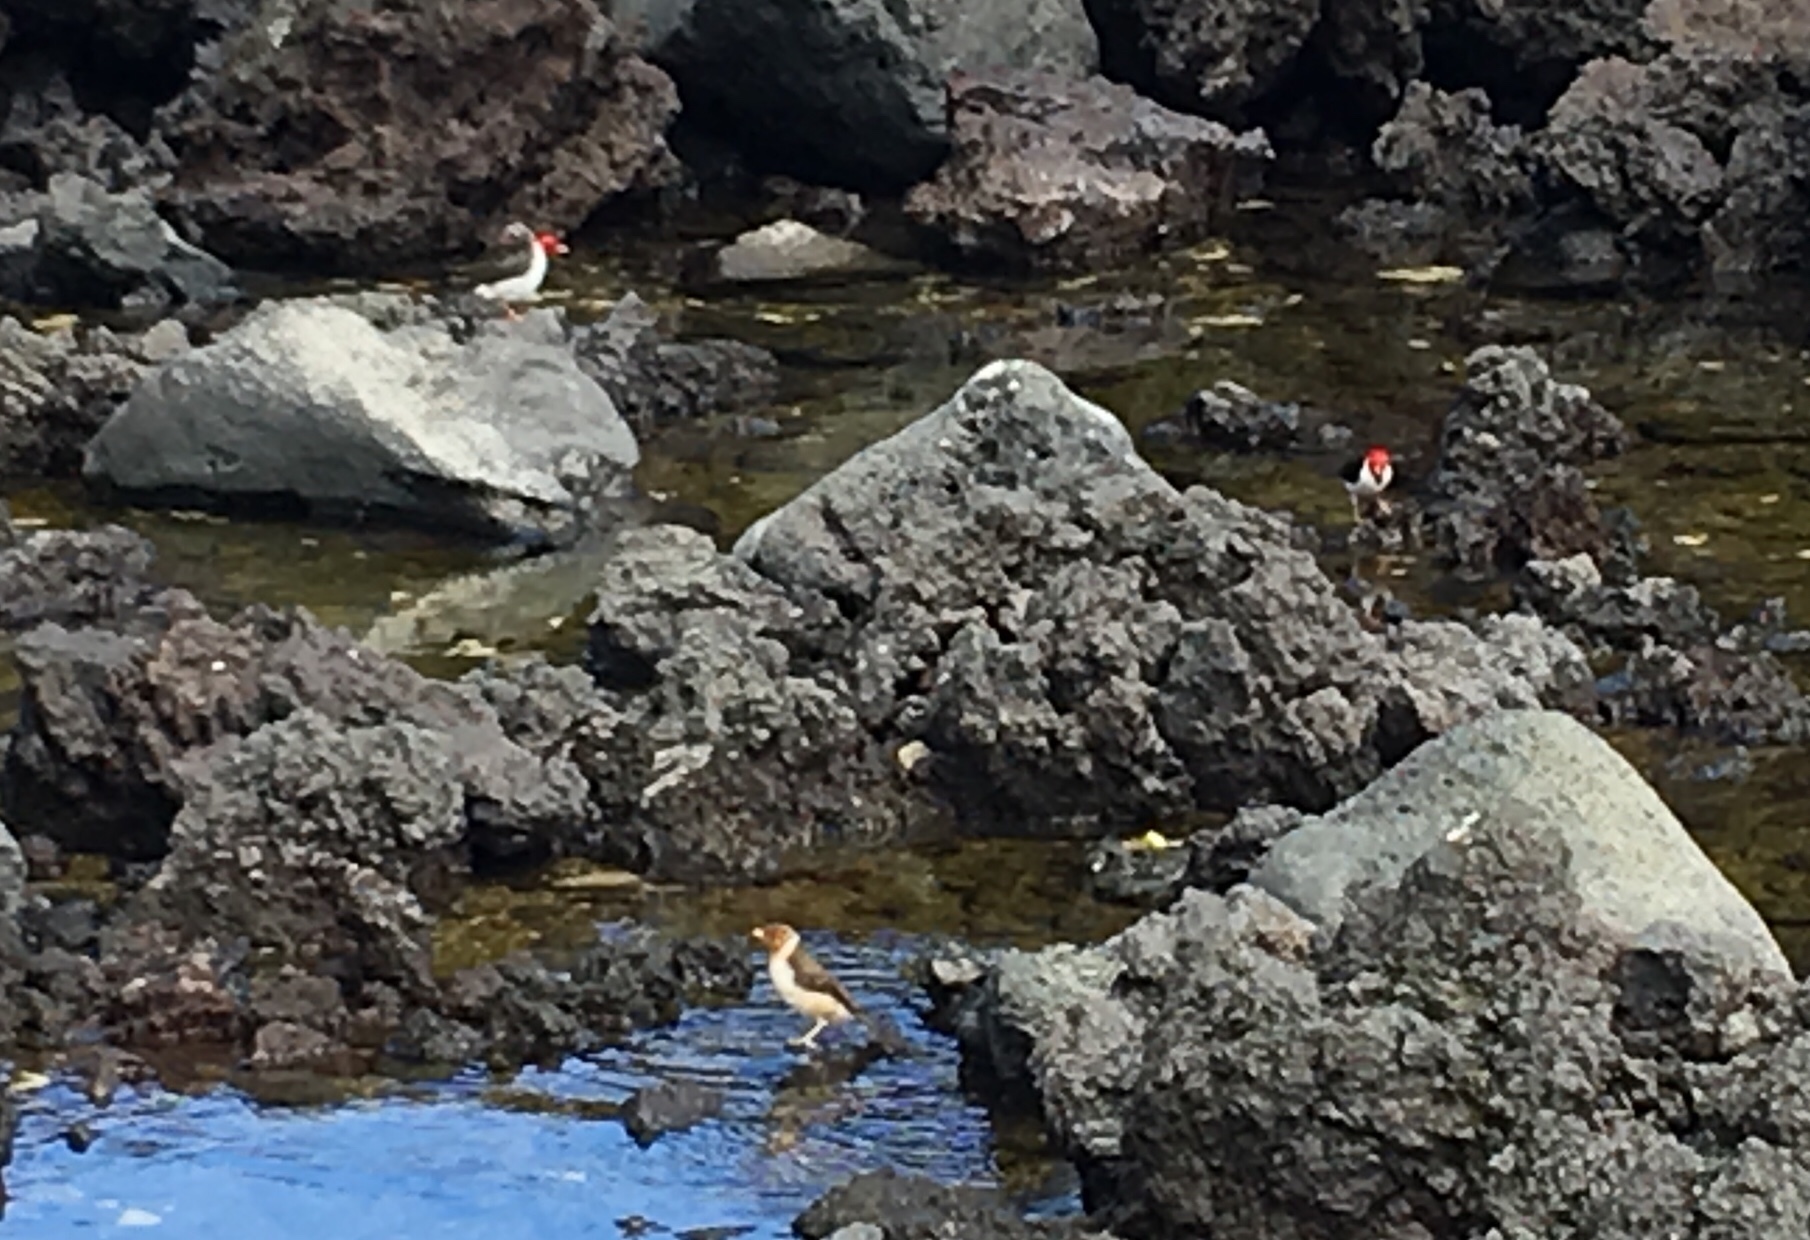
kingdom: Animalia
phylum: Chordata
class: Aves
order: Passeriformes
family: Thraupidae
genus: Paroaria
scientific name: Paroaria capitata
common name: Yellow-billed cardinal
